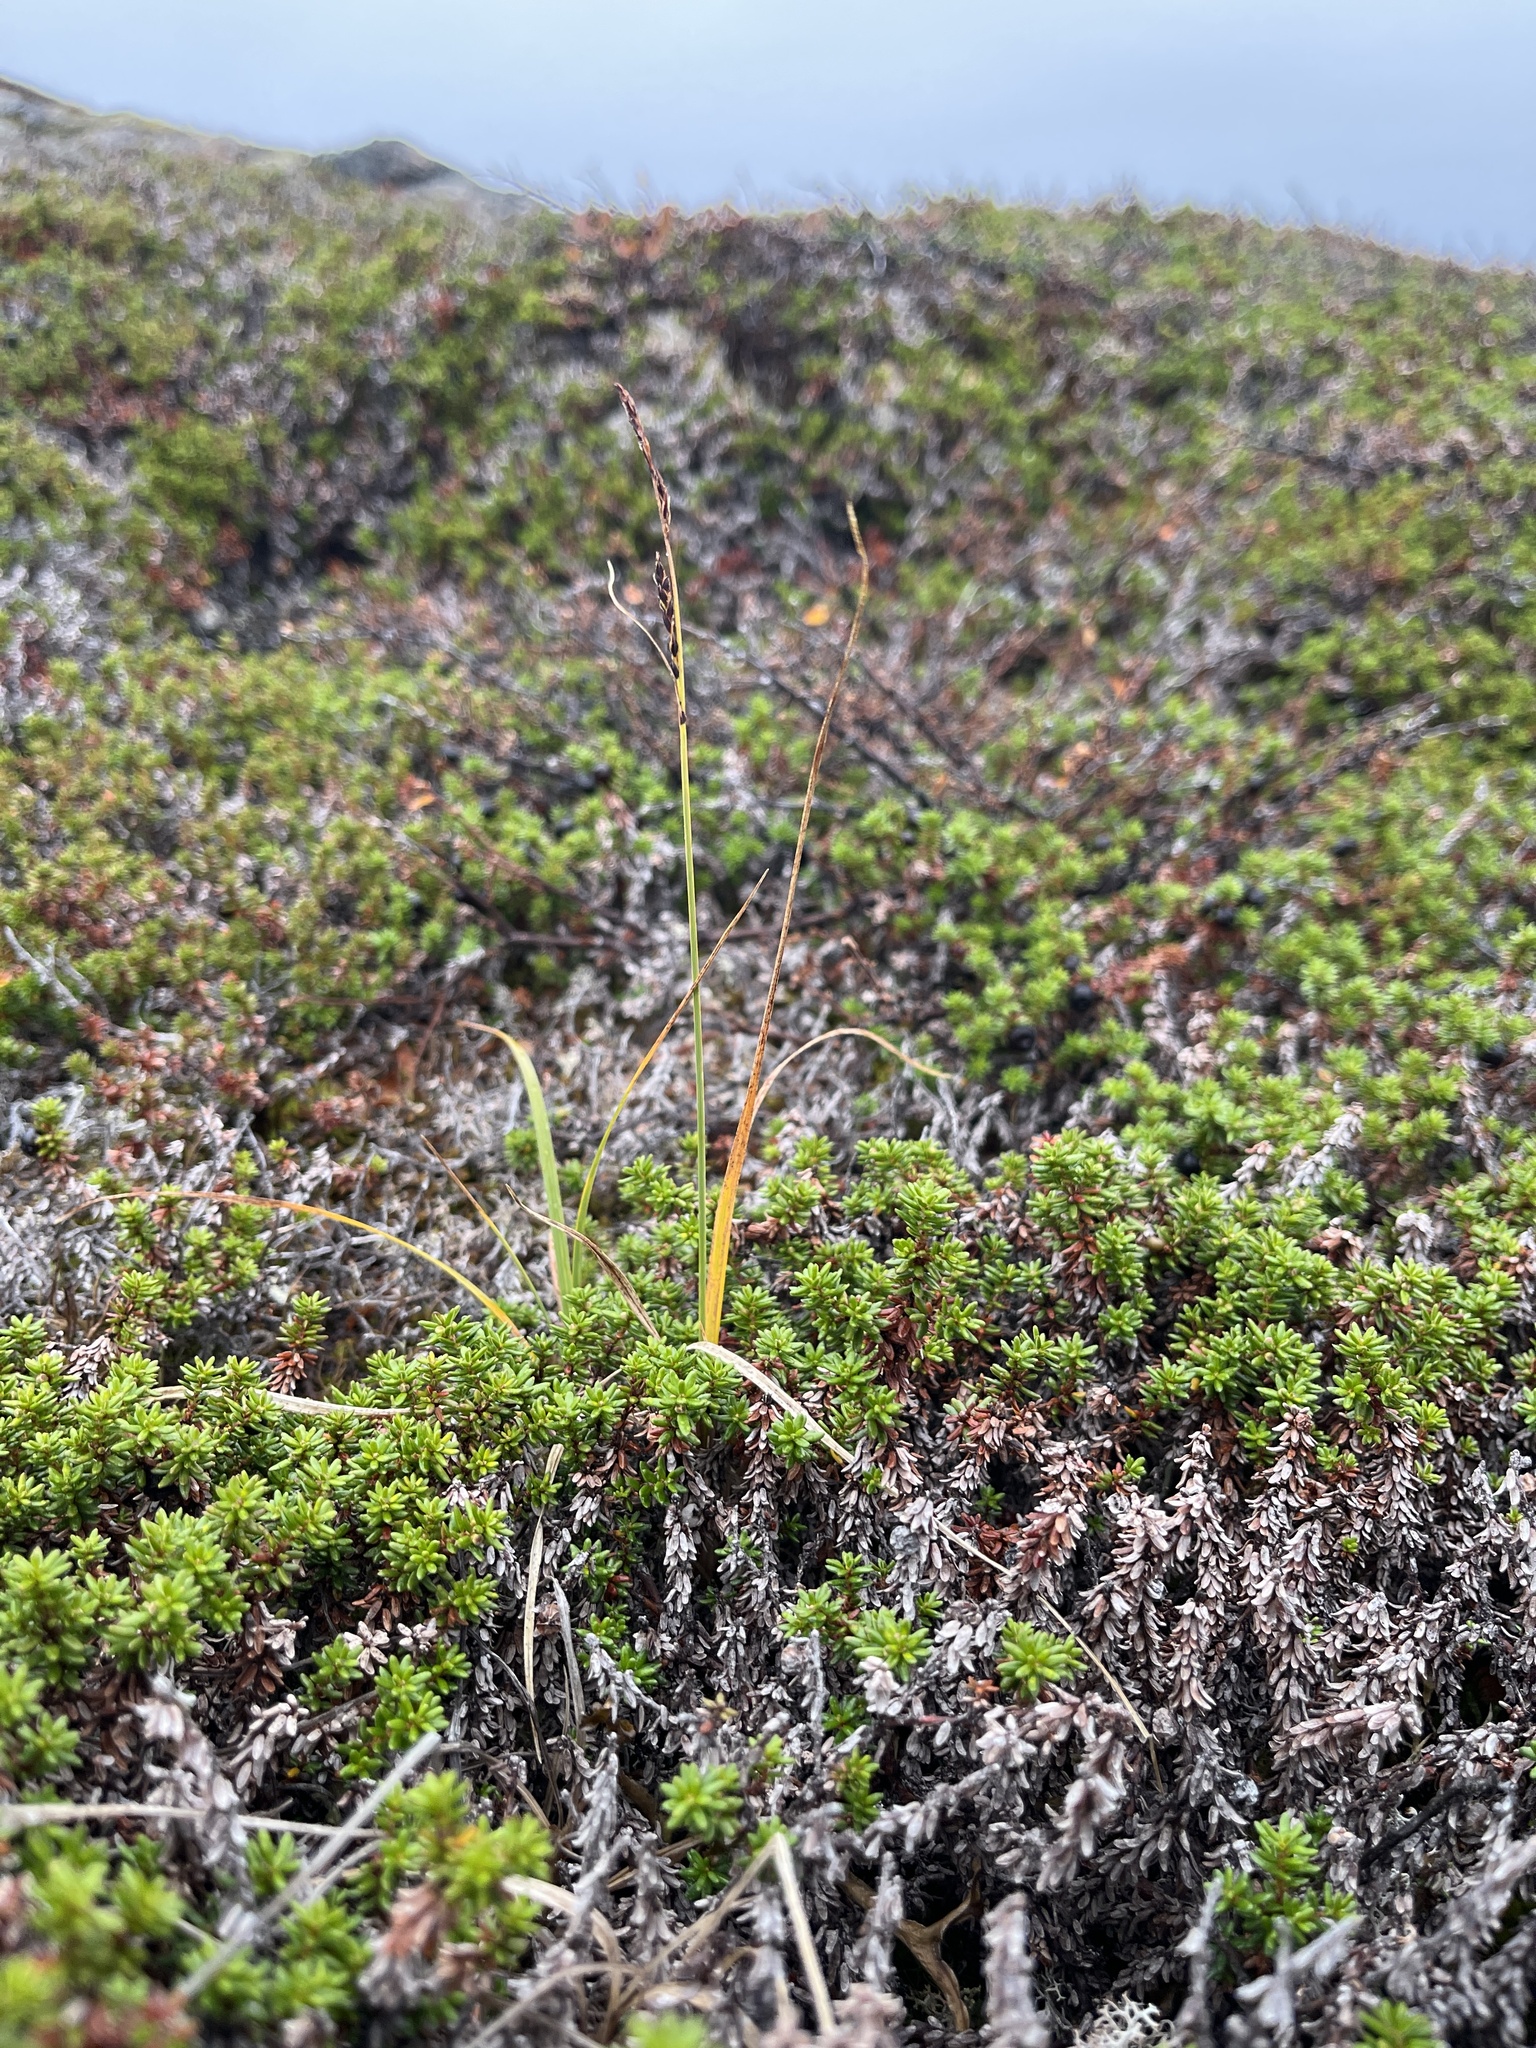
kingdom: Plantae
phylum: Tracheophyta
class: Liliopsida
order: Poales
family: Cyperaceae
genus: Carex
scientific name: Carex bigelowii
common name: Stiff sedge
